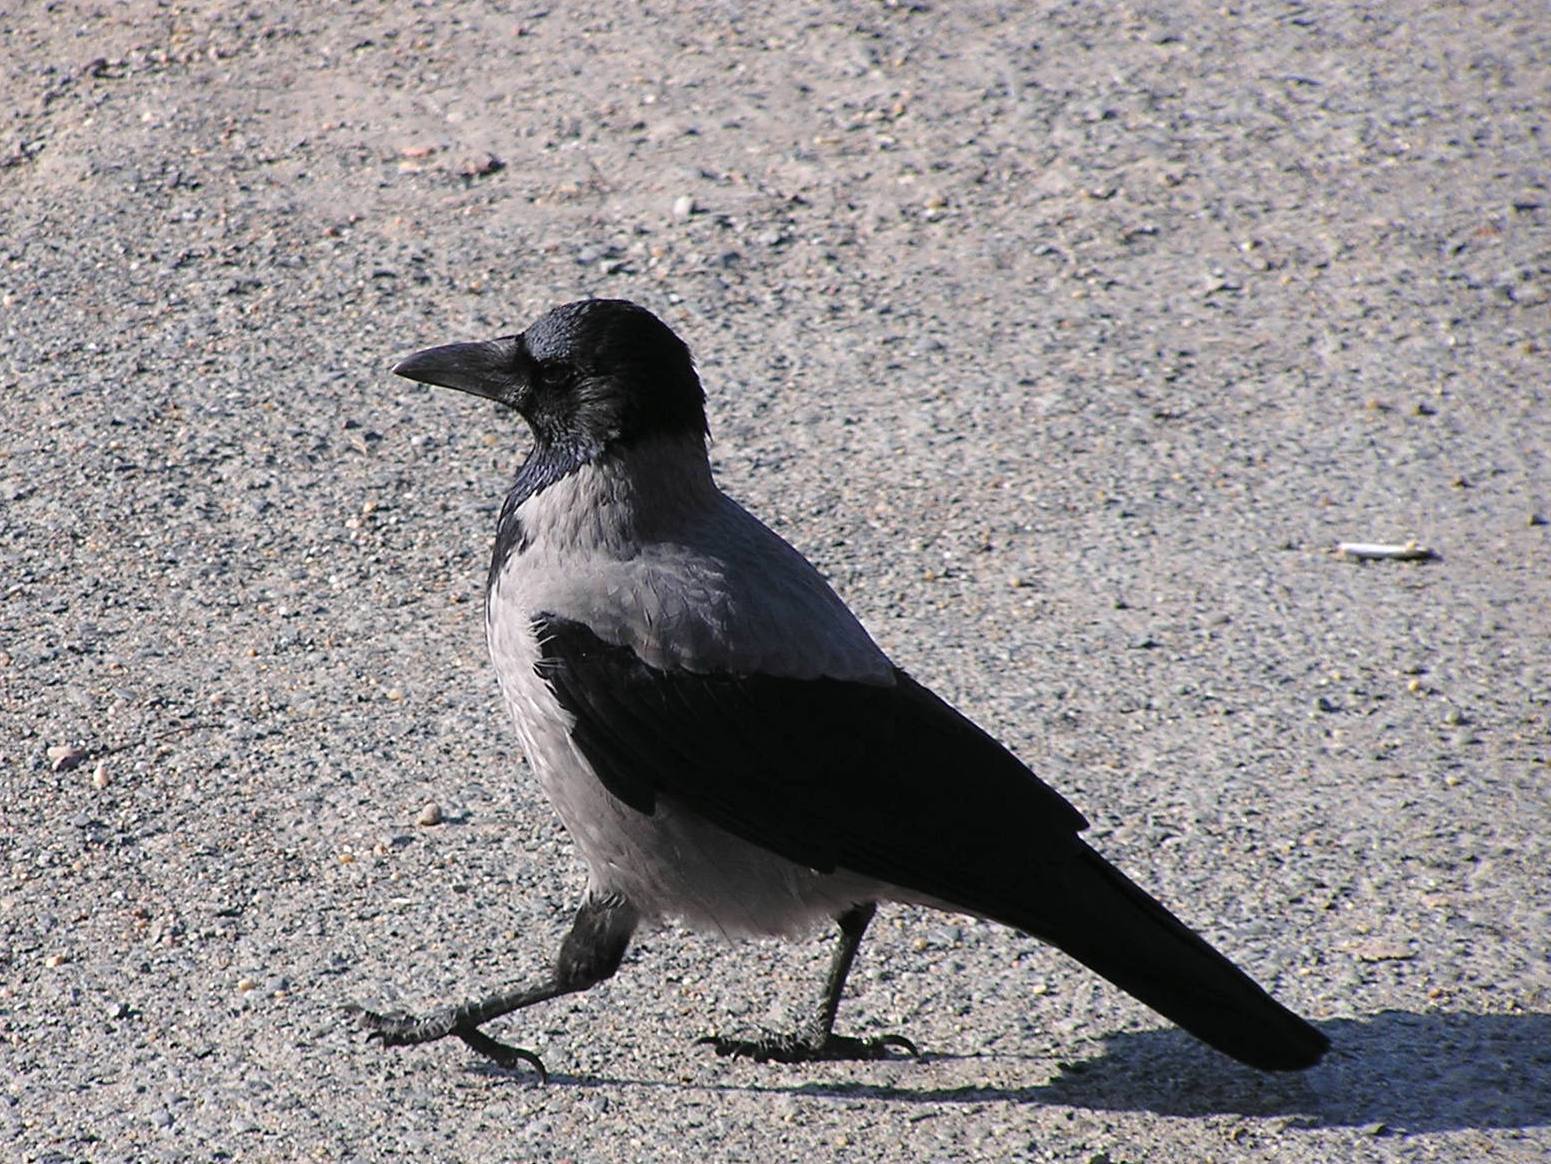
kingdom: Animalia
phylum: Chordata
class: Aves
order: Passeriformes
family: Corvidae
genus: Corvus
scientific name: Corvus cornix
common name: Hooded crow
